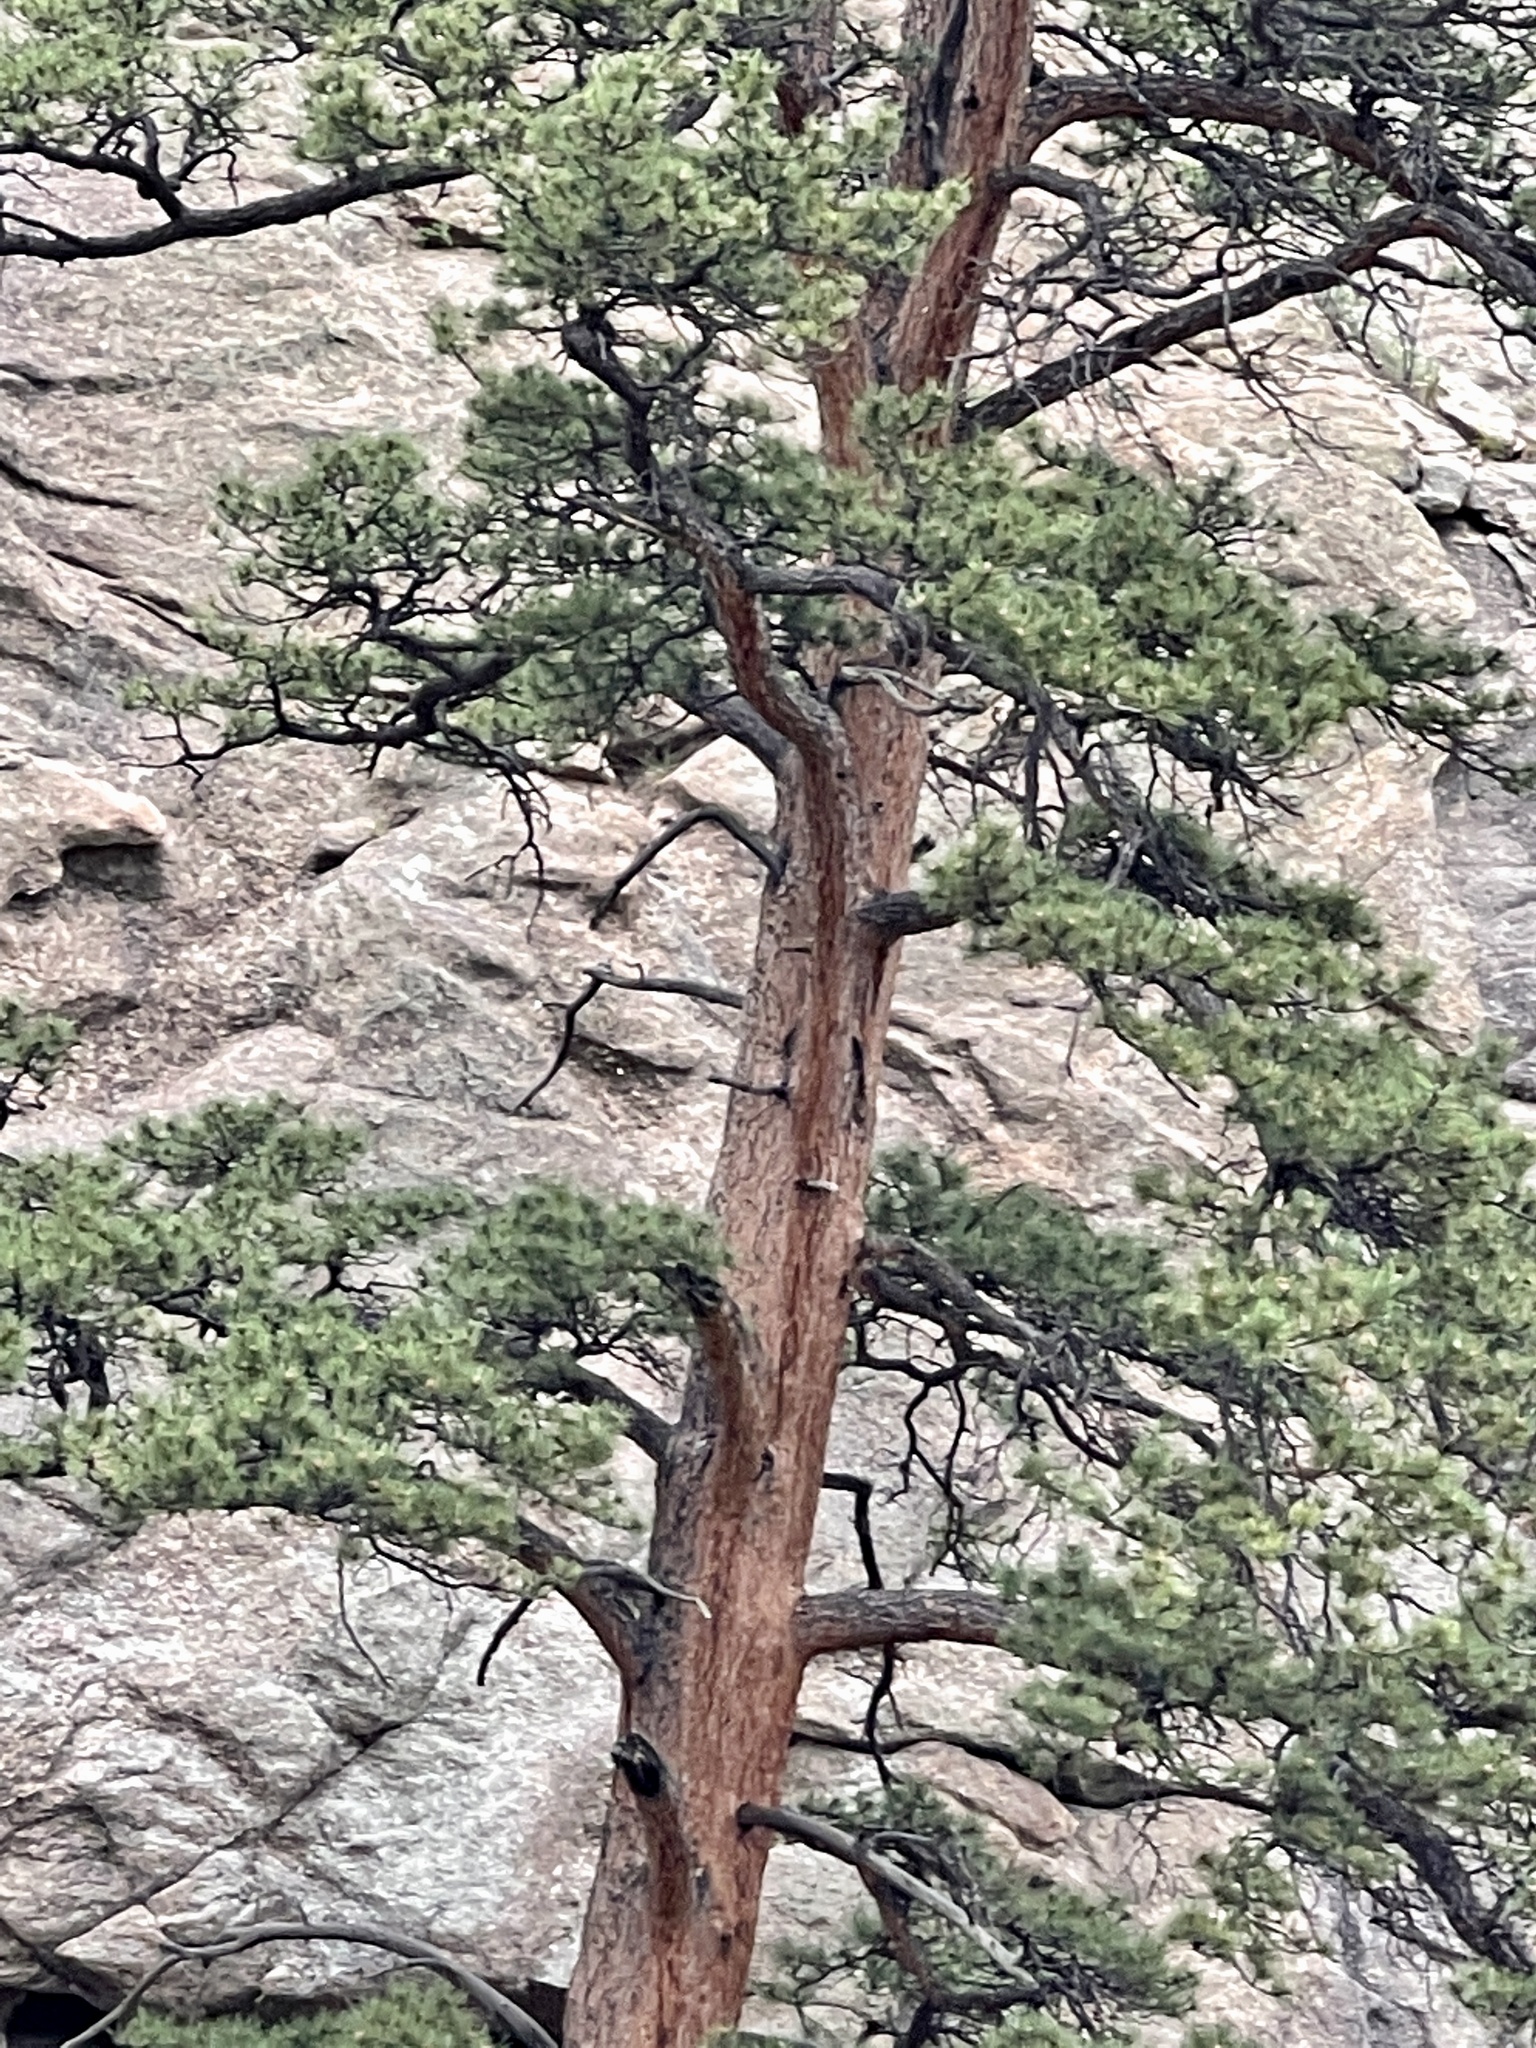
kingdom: Plantae
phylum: Tracheophyta
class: Pinopsida
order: Pinales
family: Pinaceae
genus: Pinus
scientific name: Pinus ponderosa
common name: Western yellow-pine
